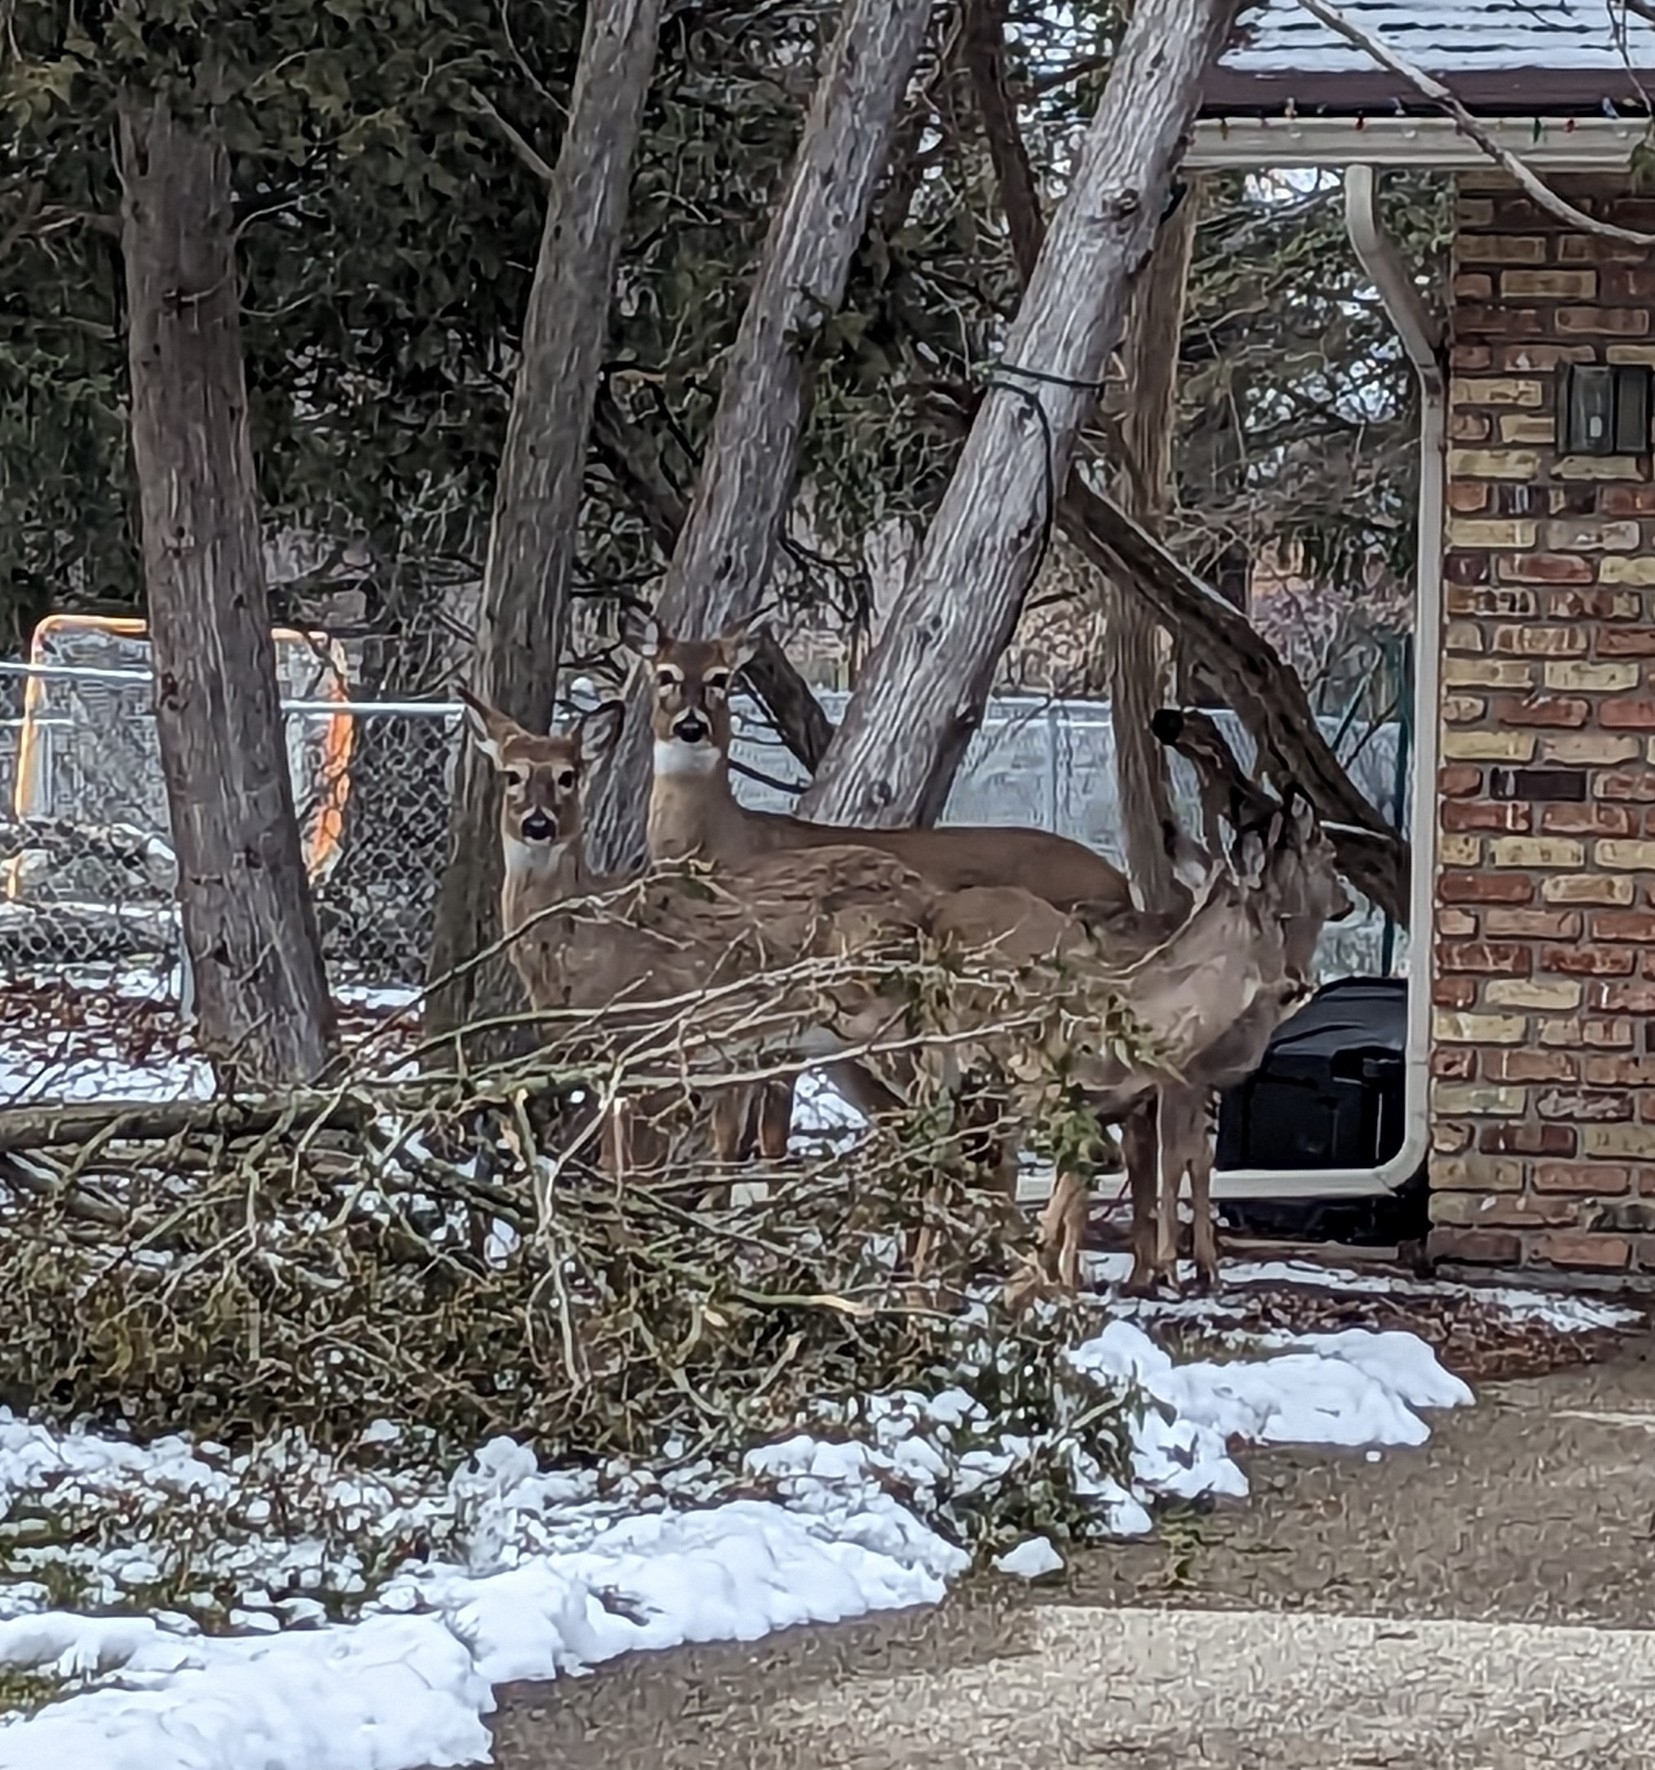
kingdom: Animalia
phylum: Chordata
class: Mammalia
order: Artiodactyla
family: Cervidae
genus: Odocoileus
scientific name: Odocoileus virginianus
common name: White-tailed deer
